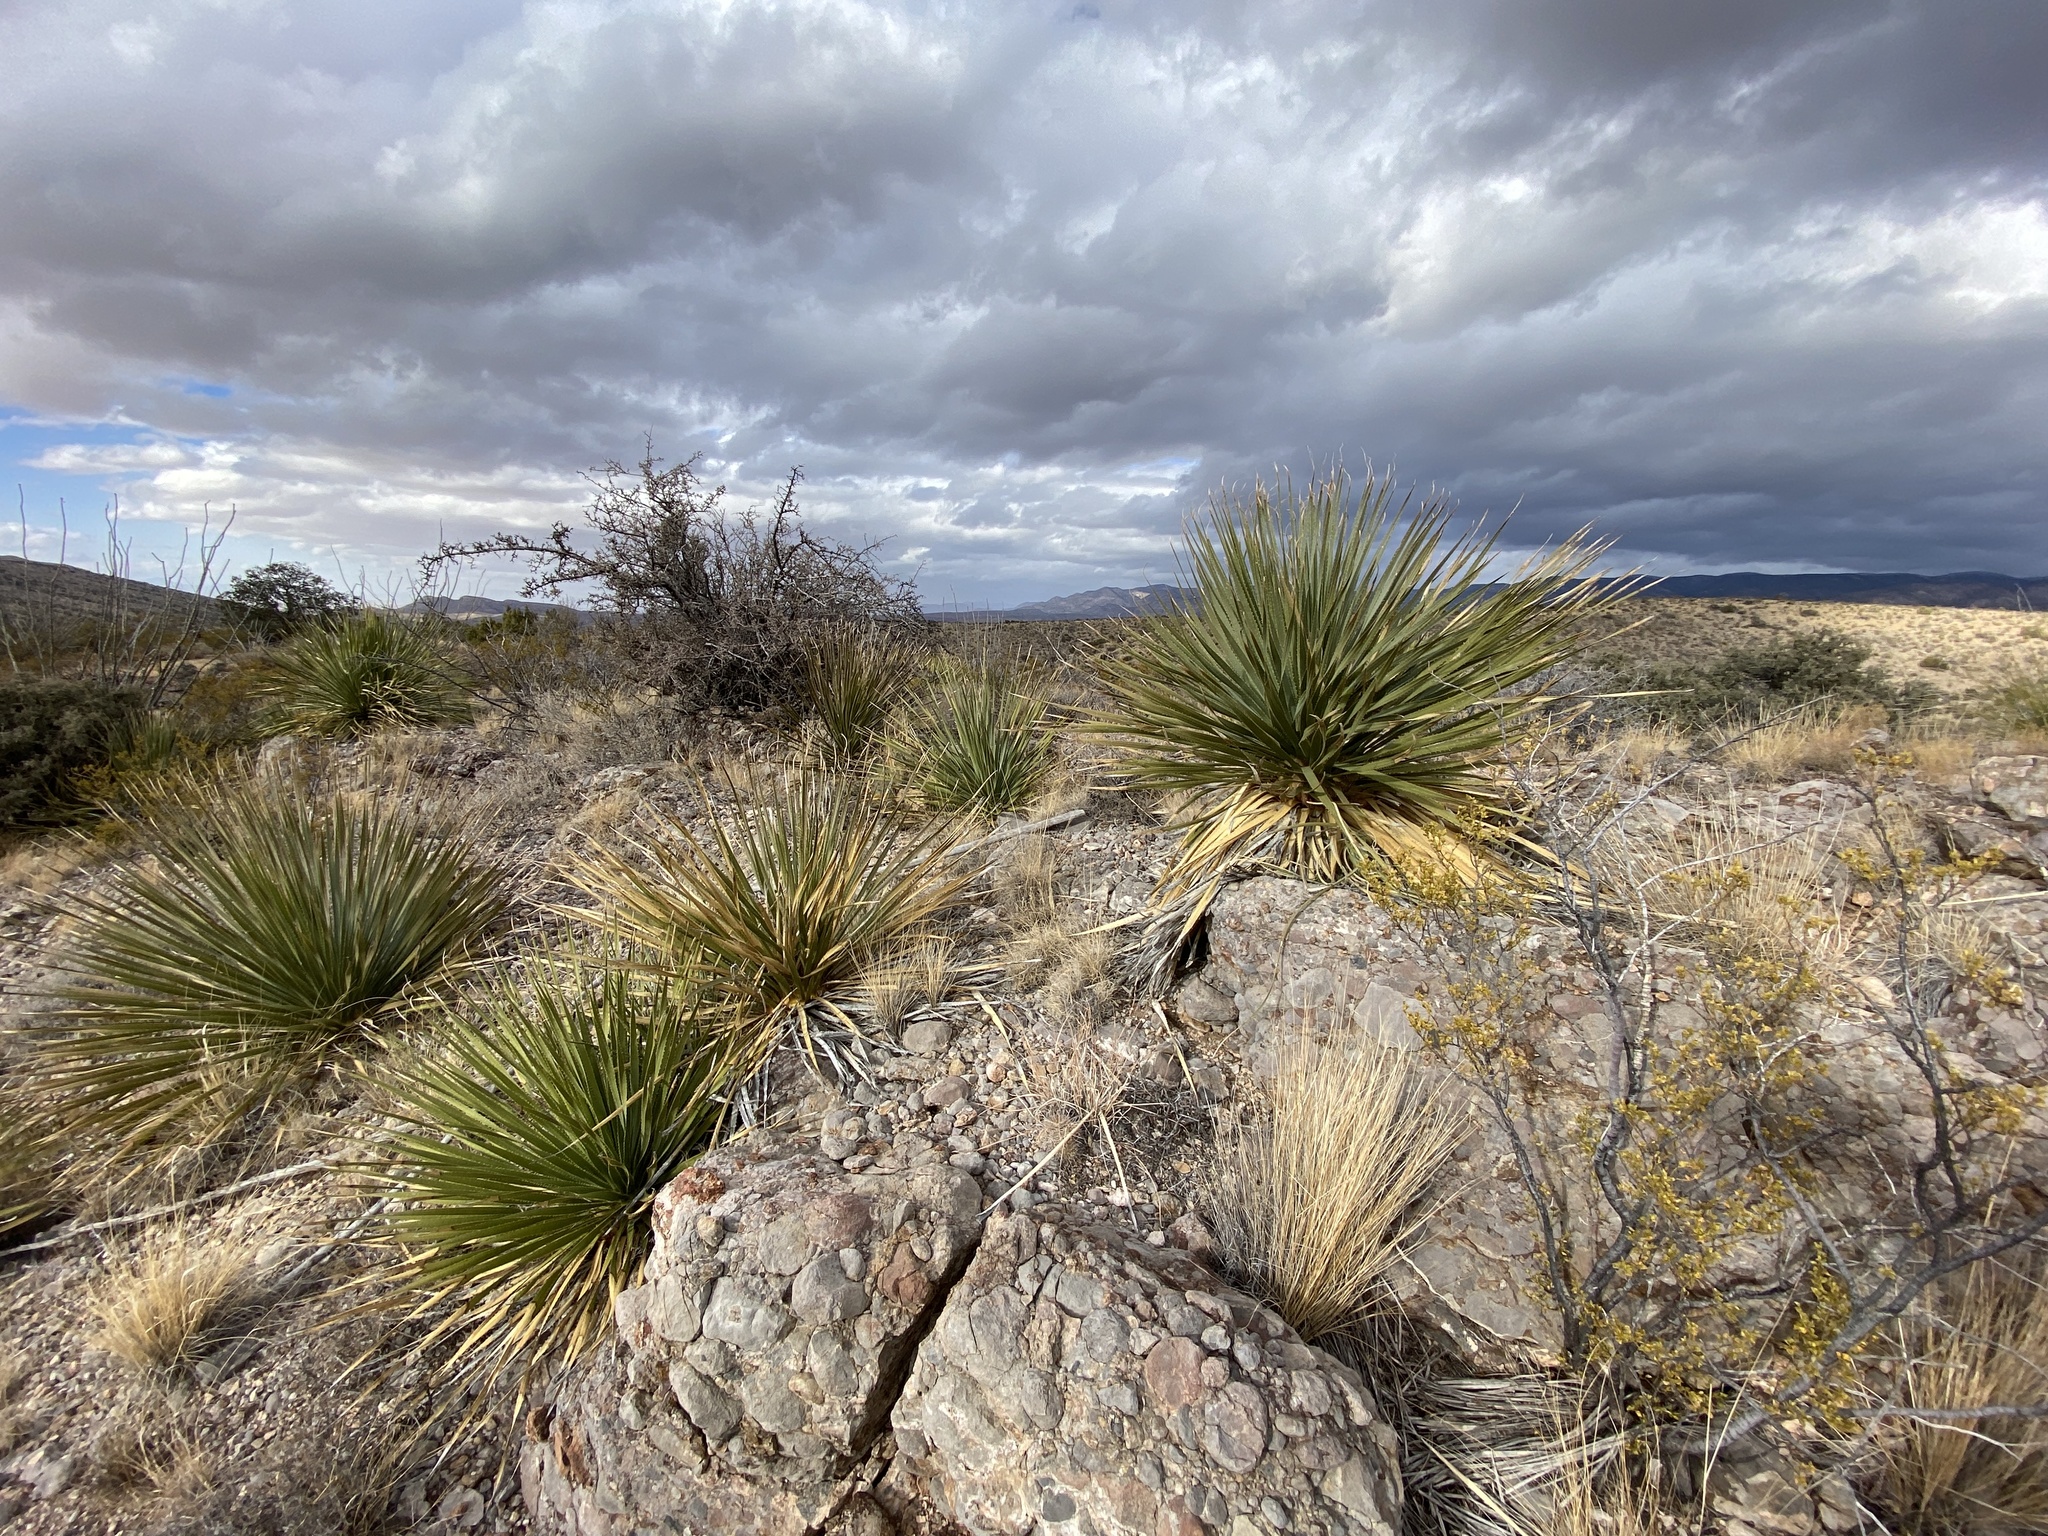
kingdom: Plantae
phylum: Tracheophyta
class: Liliopsida
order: Asparagales
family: Asparagaceae
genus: Dasylirion
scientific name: Dasylirion wheeleri
